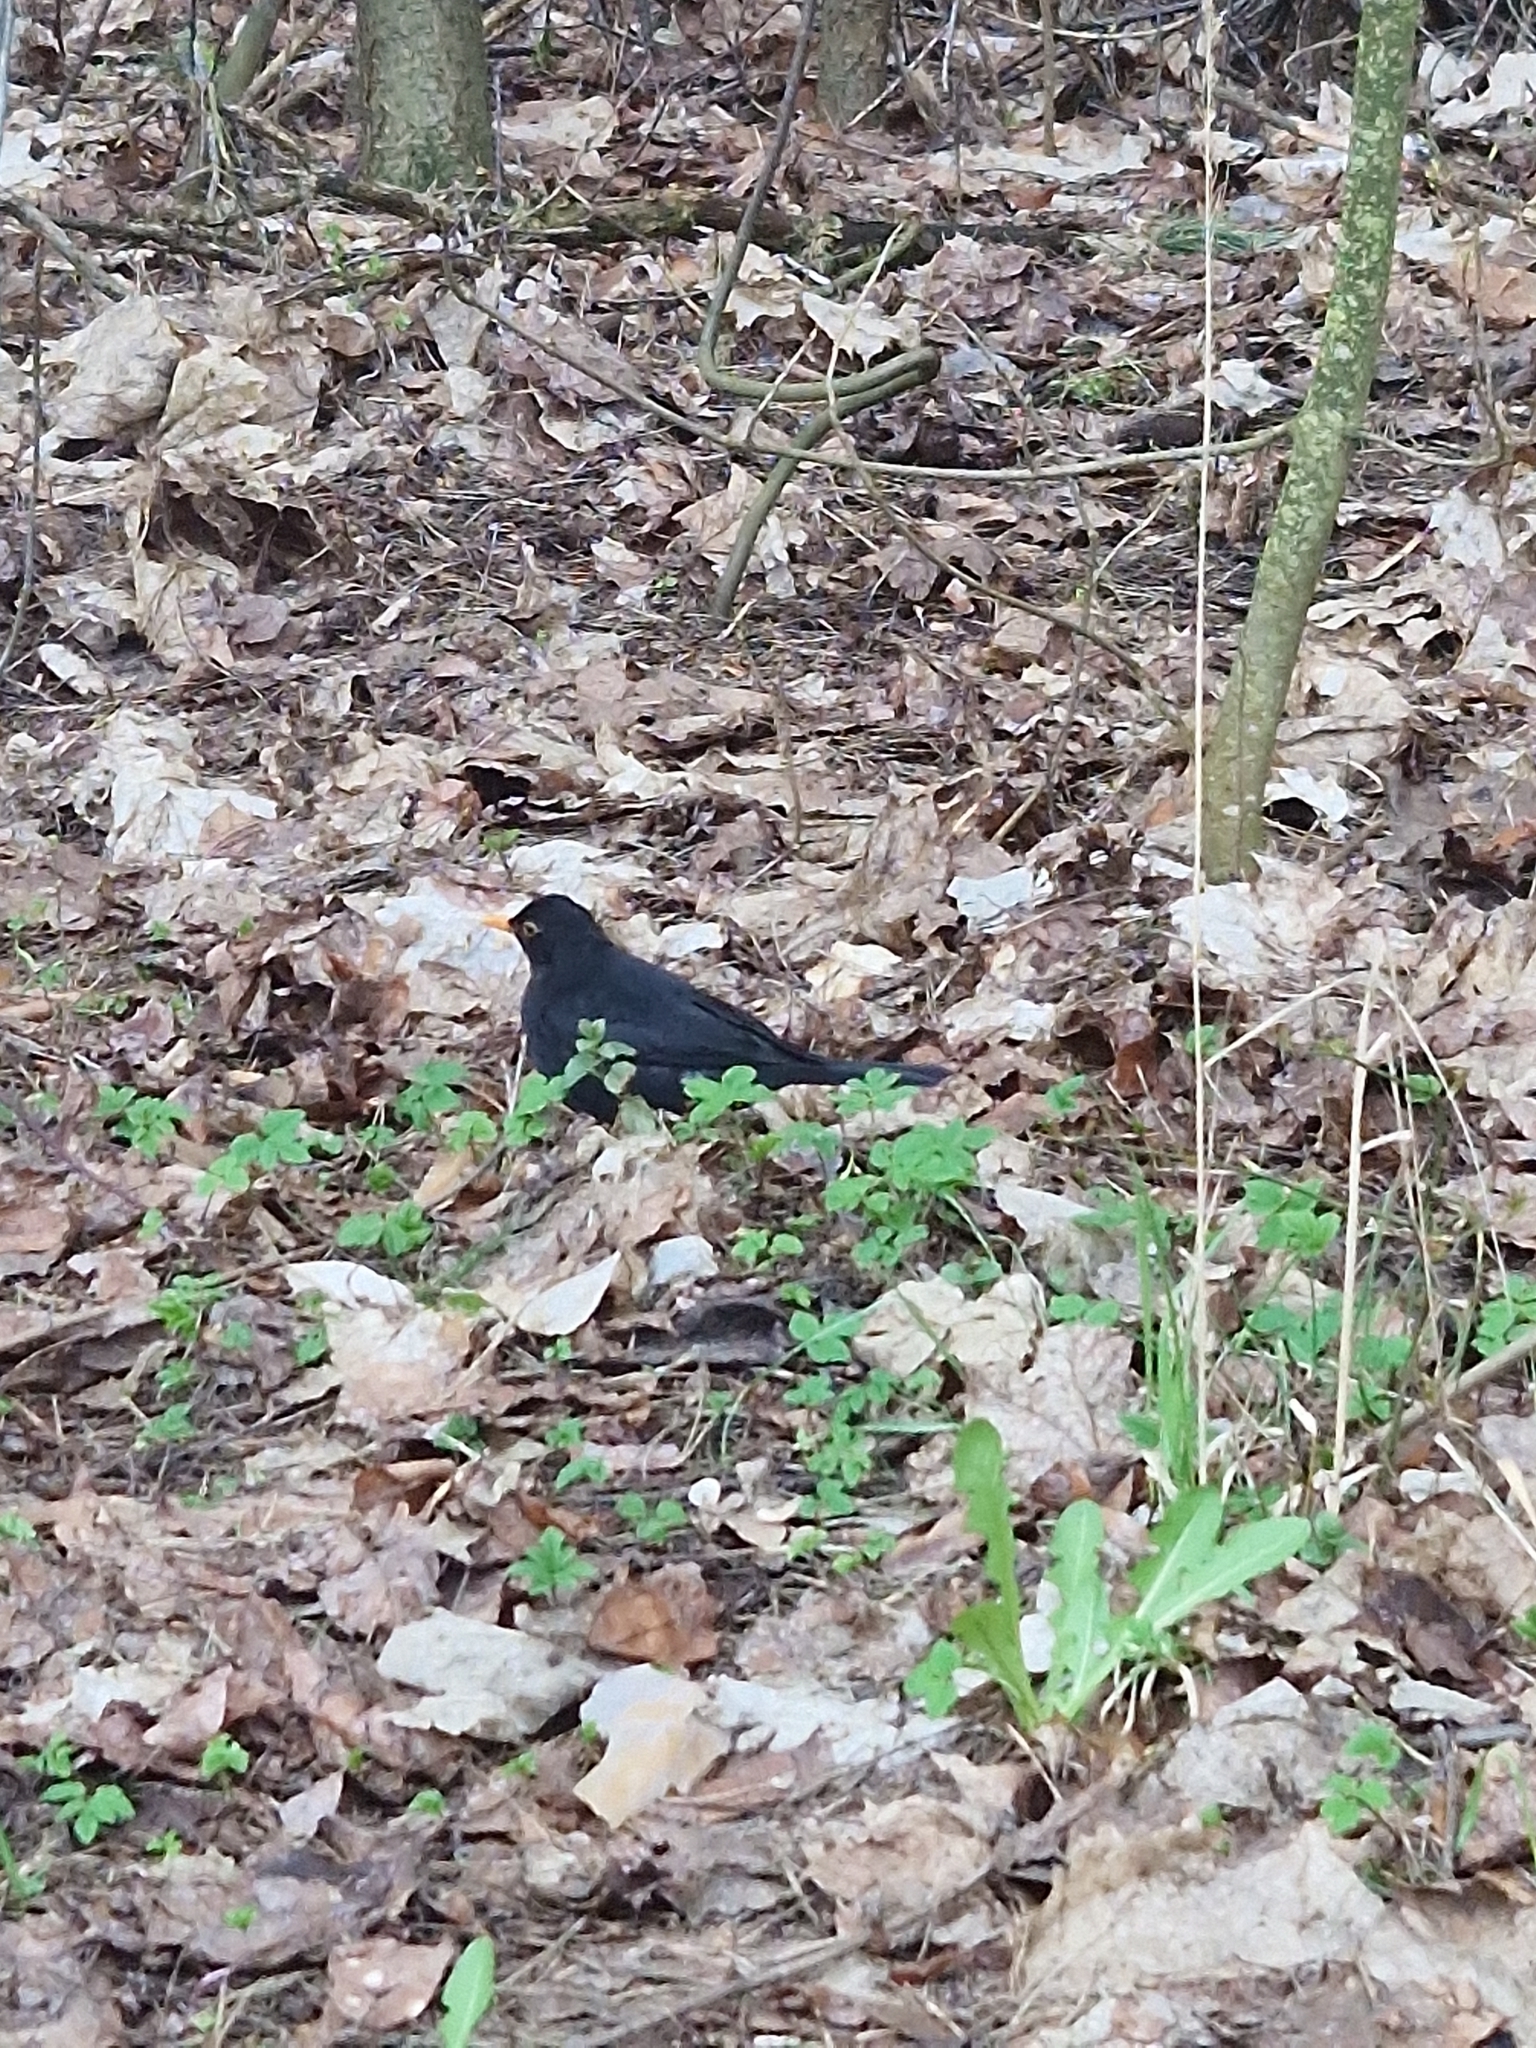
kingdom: Animalia
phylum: Chordata
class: Aves
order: Passeriformes
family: Turdidae
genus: Turdus
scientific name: Turdus merula
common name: Common blackbird
